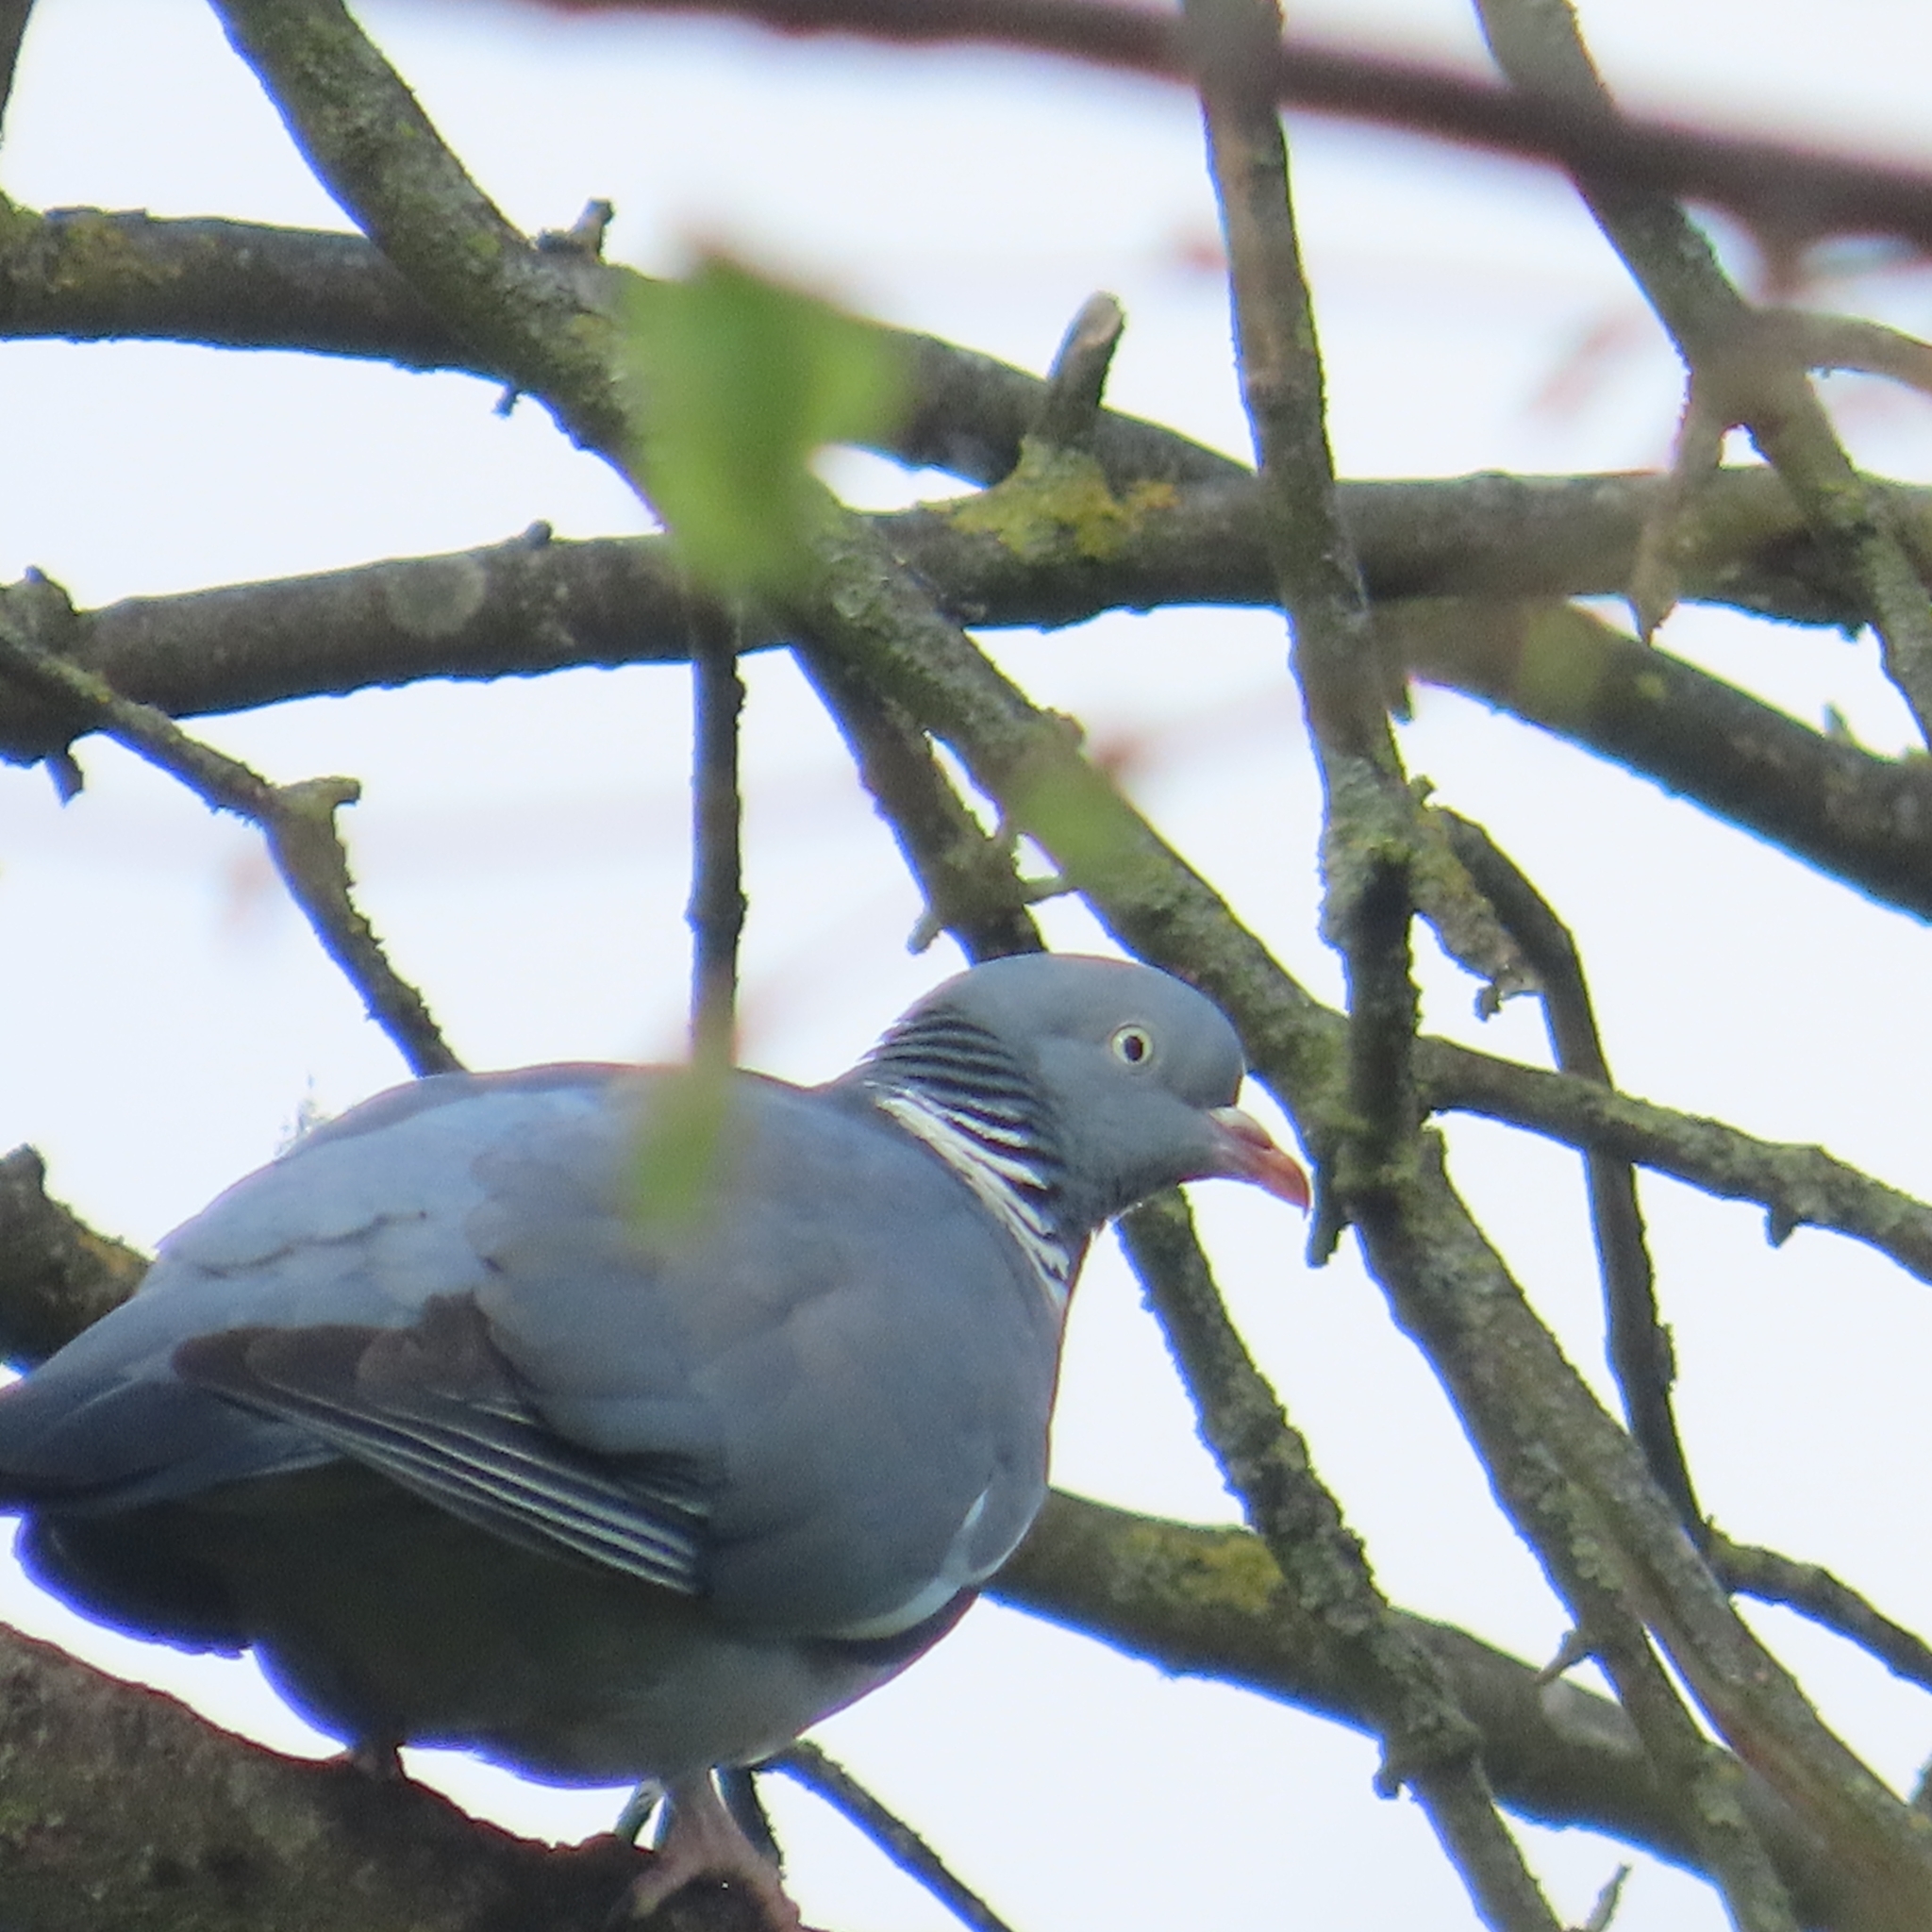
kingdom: Animalia
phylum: Chordata
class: Aves
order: Columbiformes
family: Columbidae
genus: Columba
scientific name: Columba palumbus
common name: Common wood pigeon
